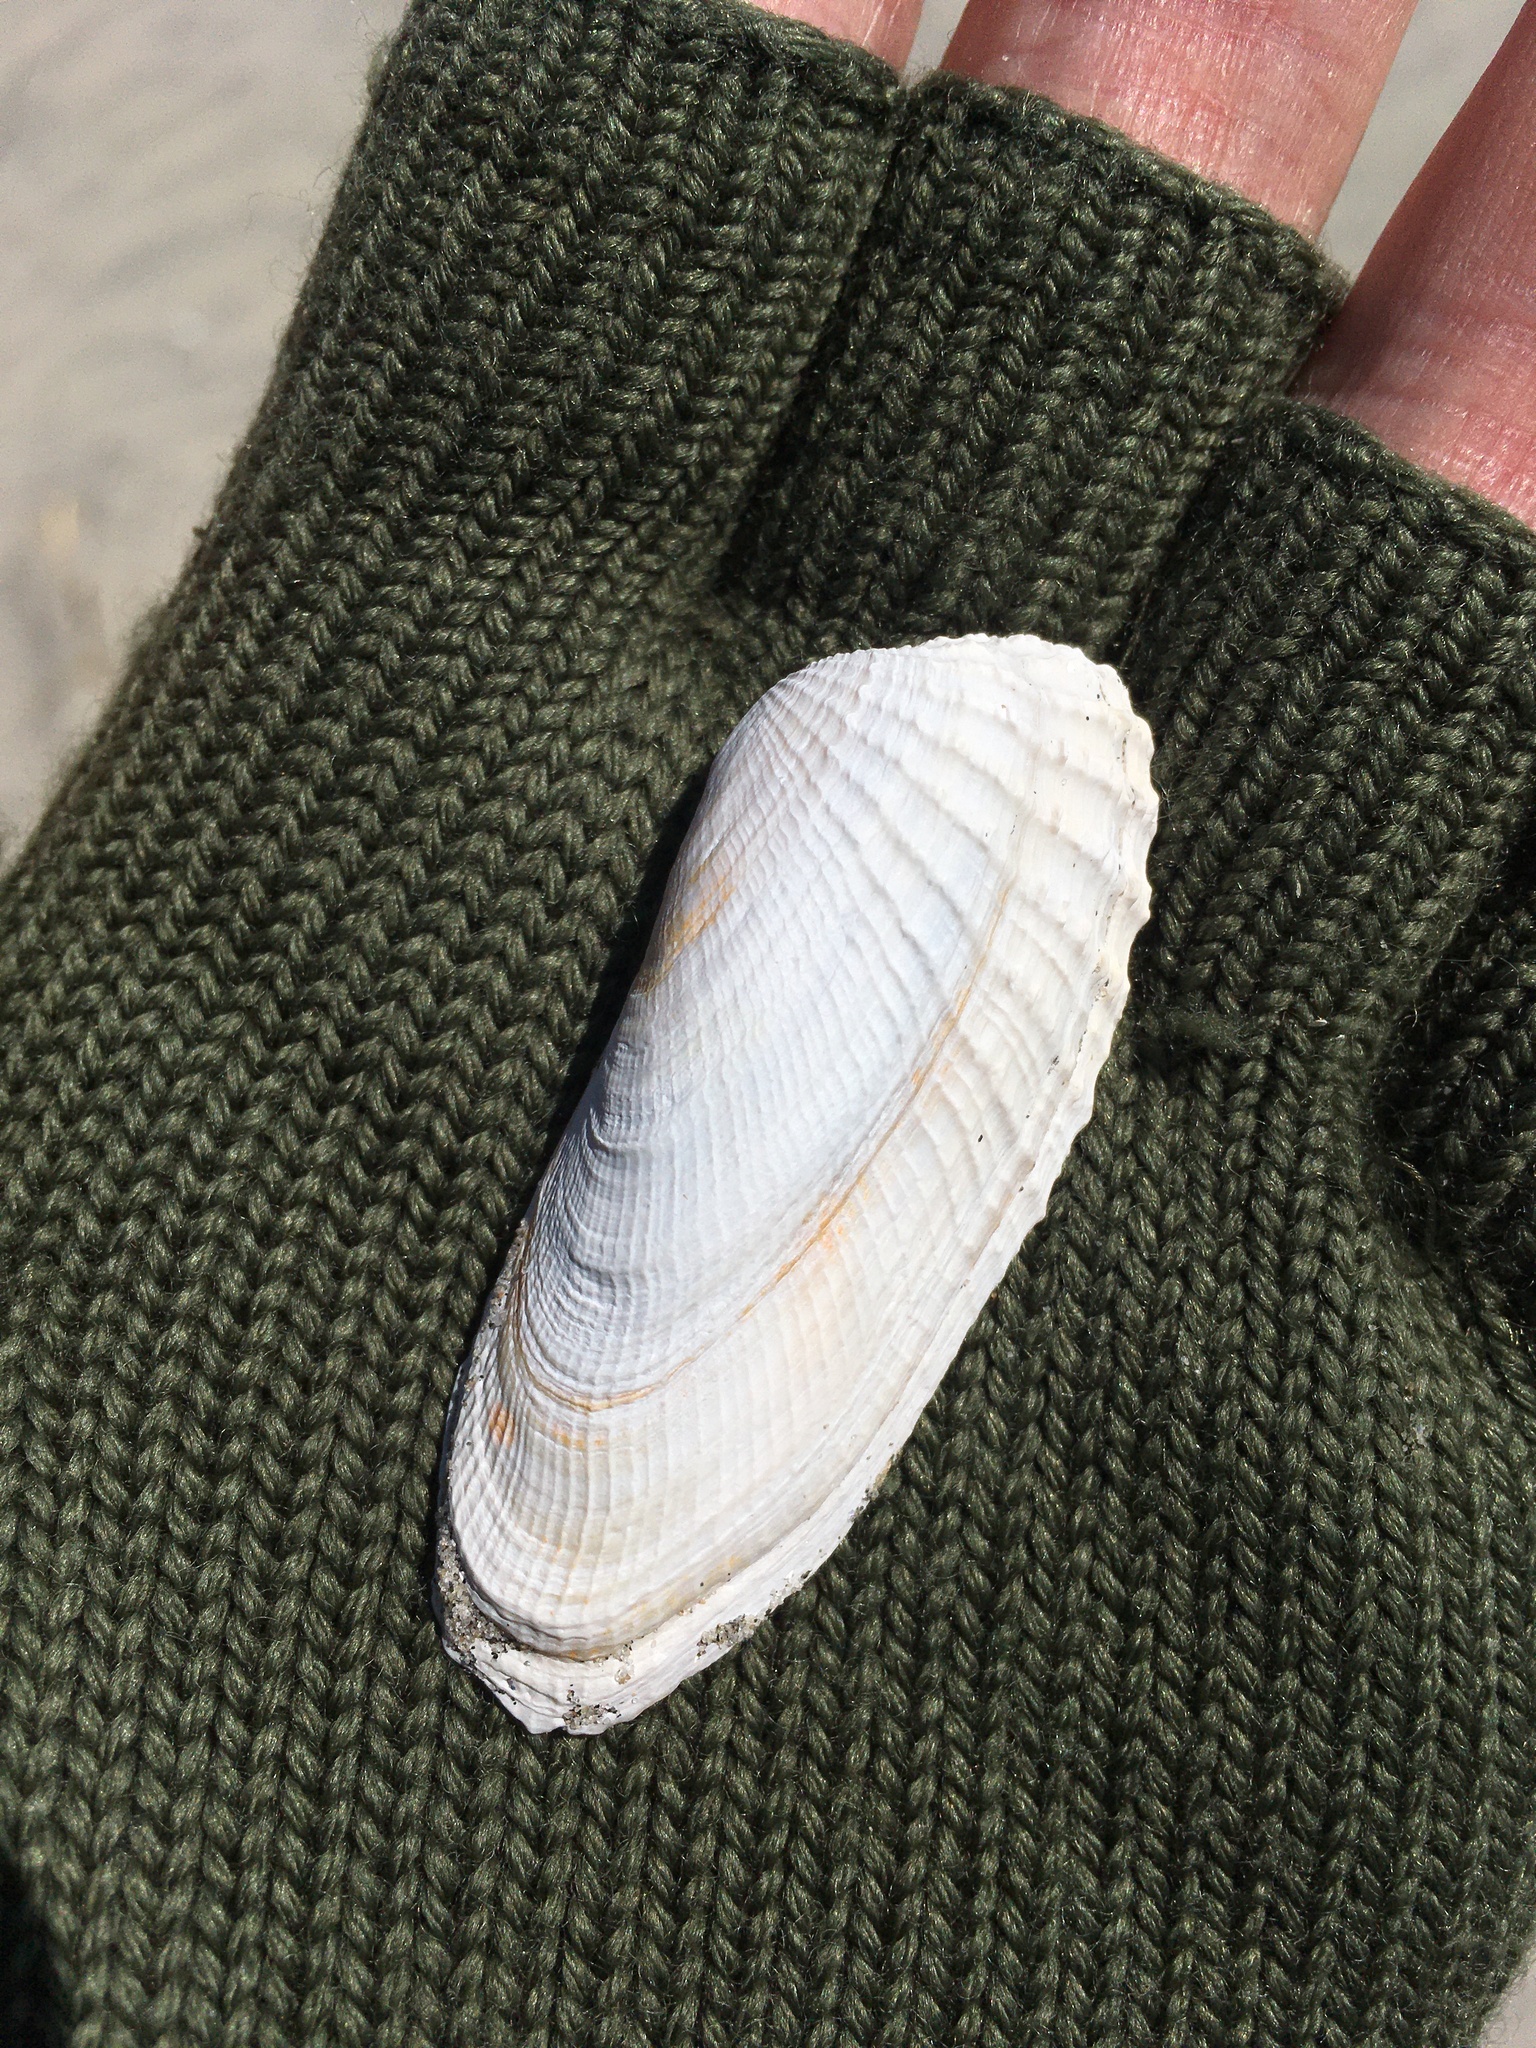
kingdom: Animalia
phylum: Mollusca
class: Bivalvia
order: Venerida
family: Veneridae
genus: Petricolaria
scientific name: Petricolaria pholadiformis
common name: American piddock
